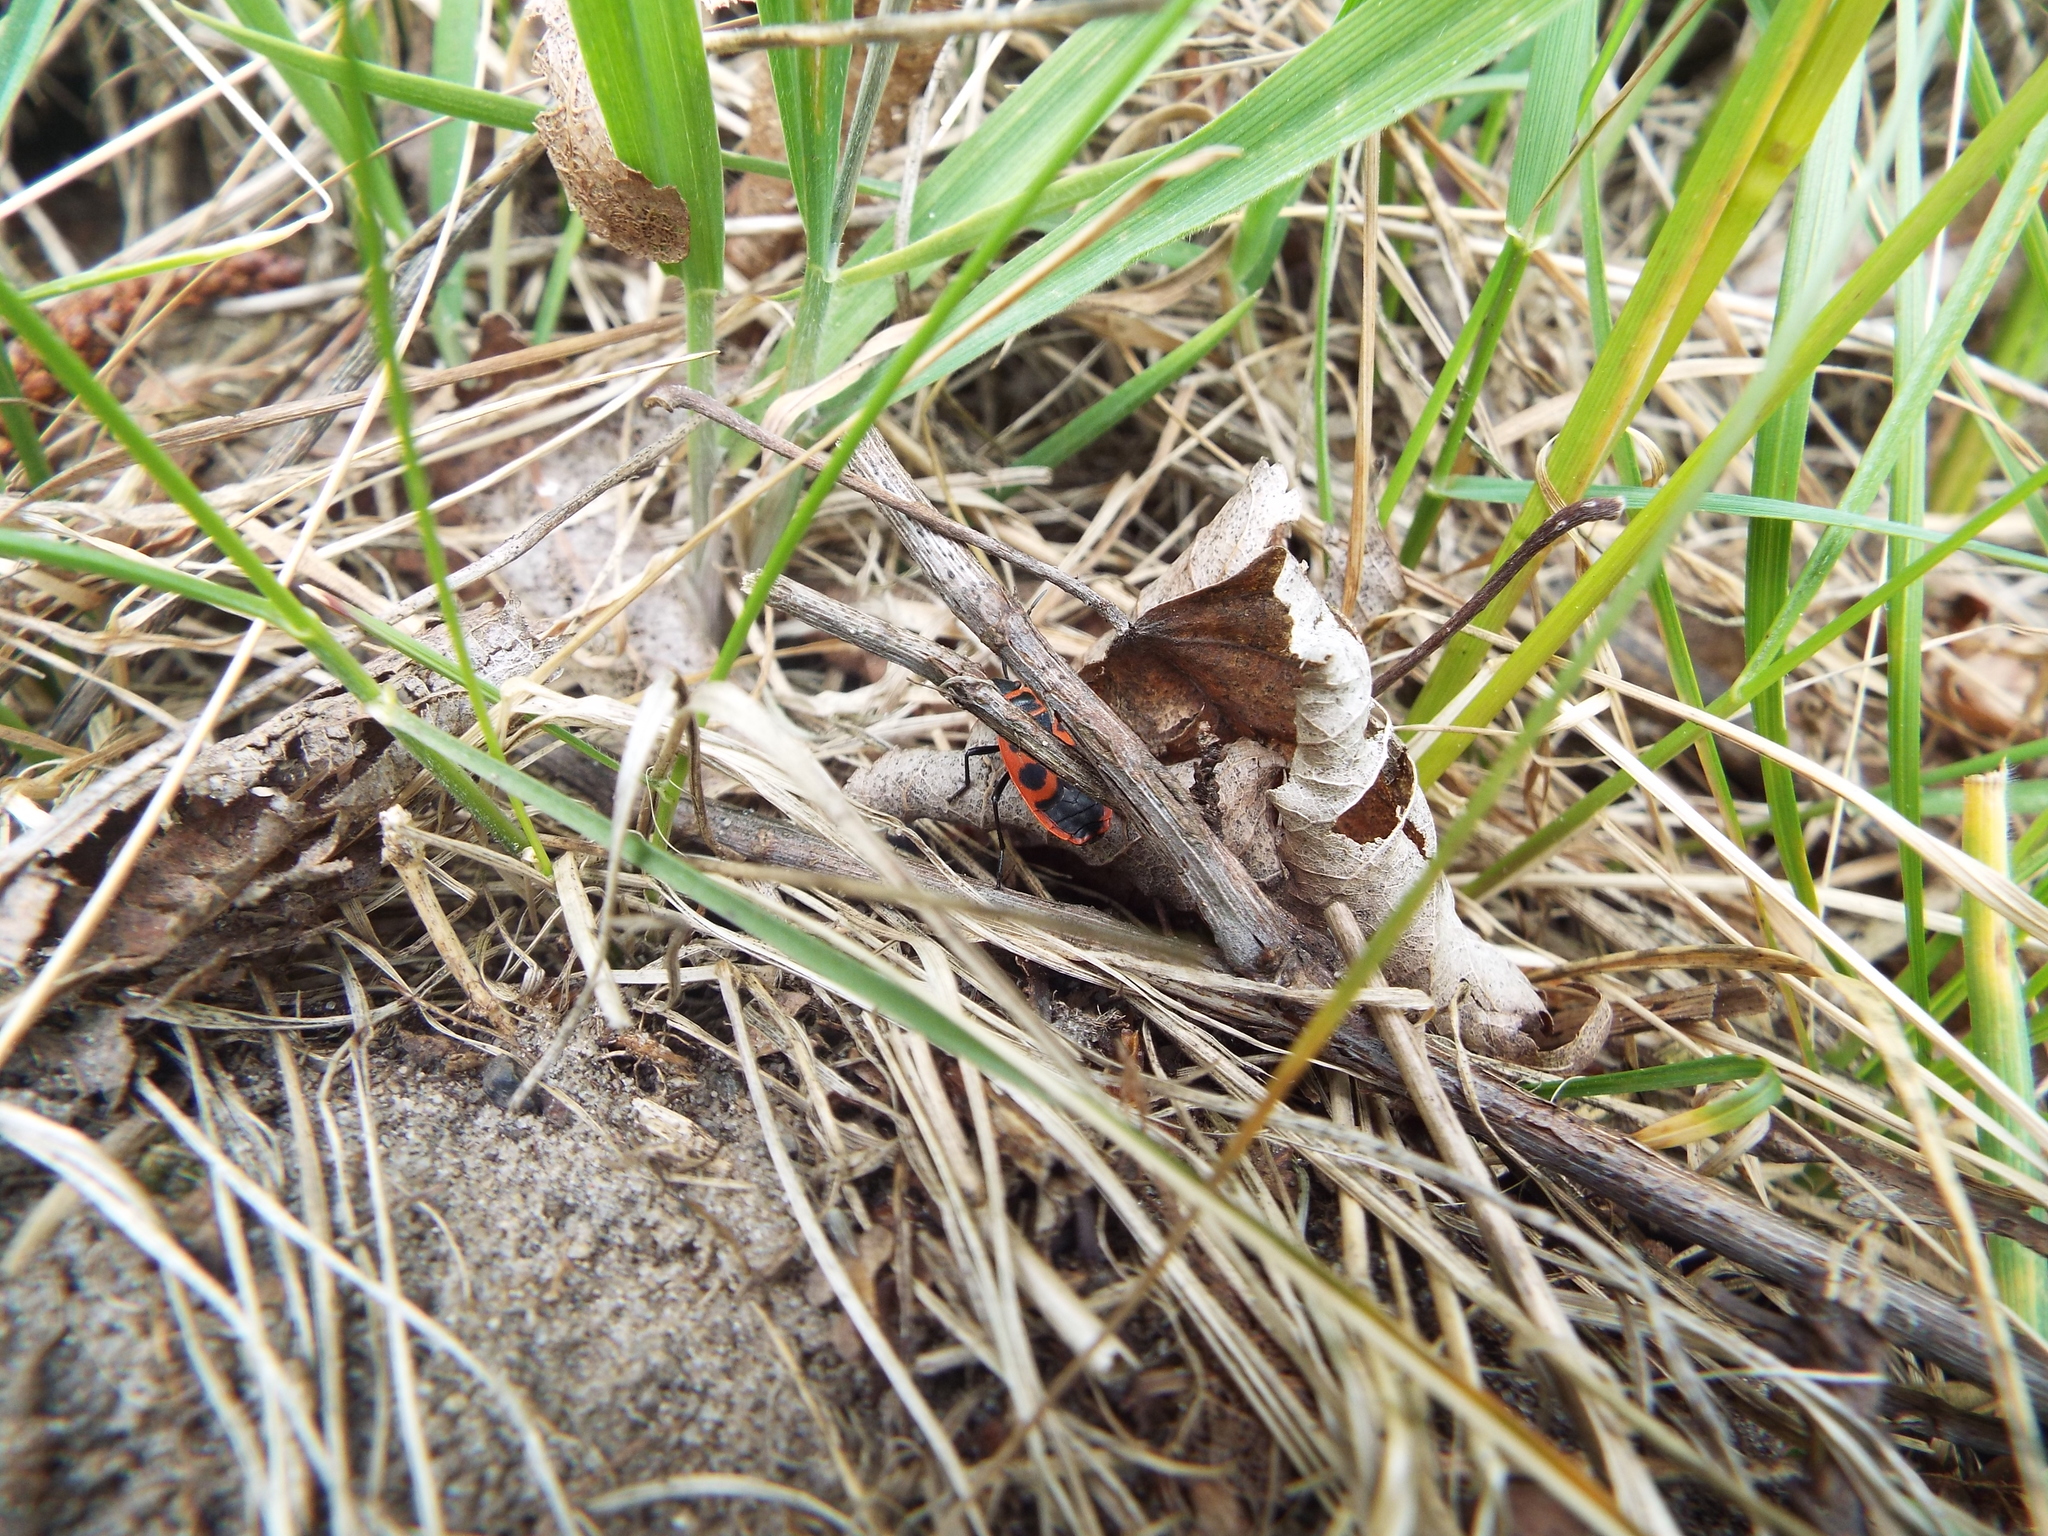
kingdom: Animalia
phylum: Arthropoda
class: Insecta
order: Hemiptera
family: Pyrrhocoridae
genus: Pyrrhocoris
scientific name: Pyrrhocoris apterus
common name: Firebug
